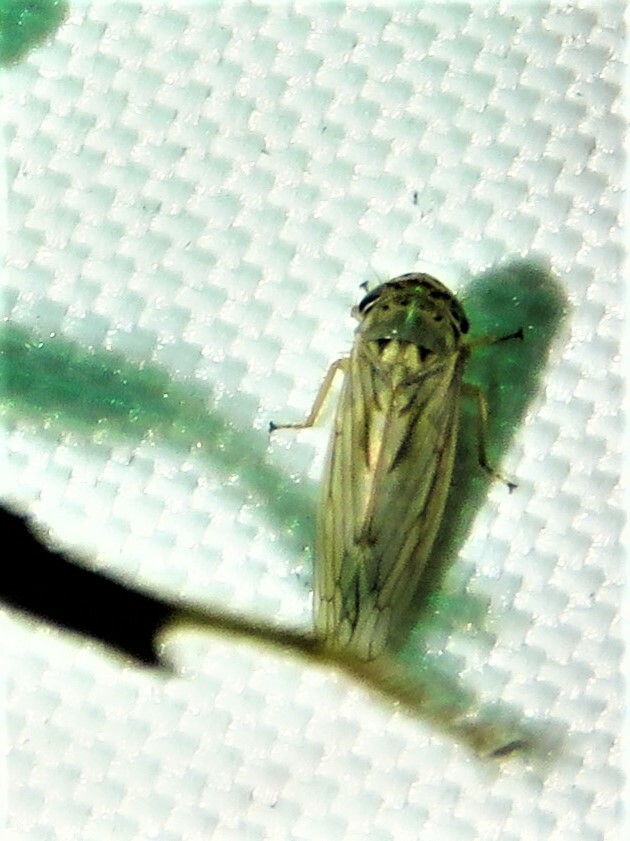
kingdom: Animalia
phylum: Arthropoda
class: Insecta
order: Hemiptera
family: Cicadellidae
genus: Exitianus
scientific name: Exitianus exitiosus
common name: Gray lawn leafhopper
